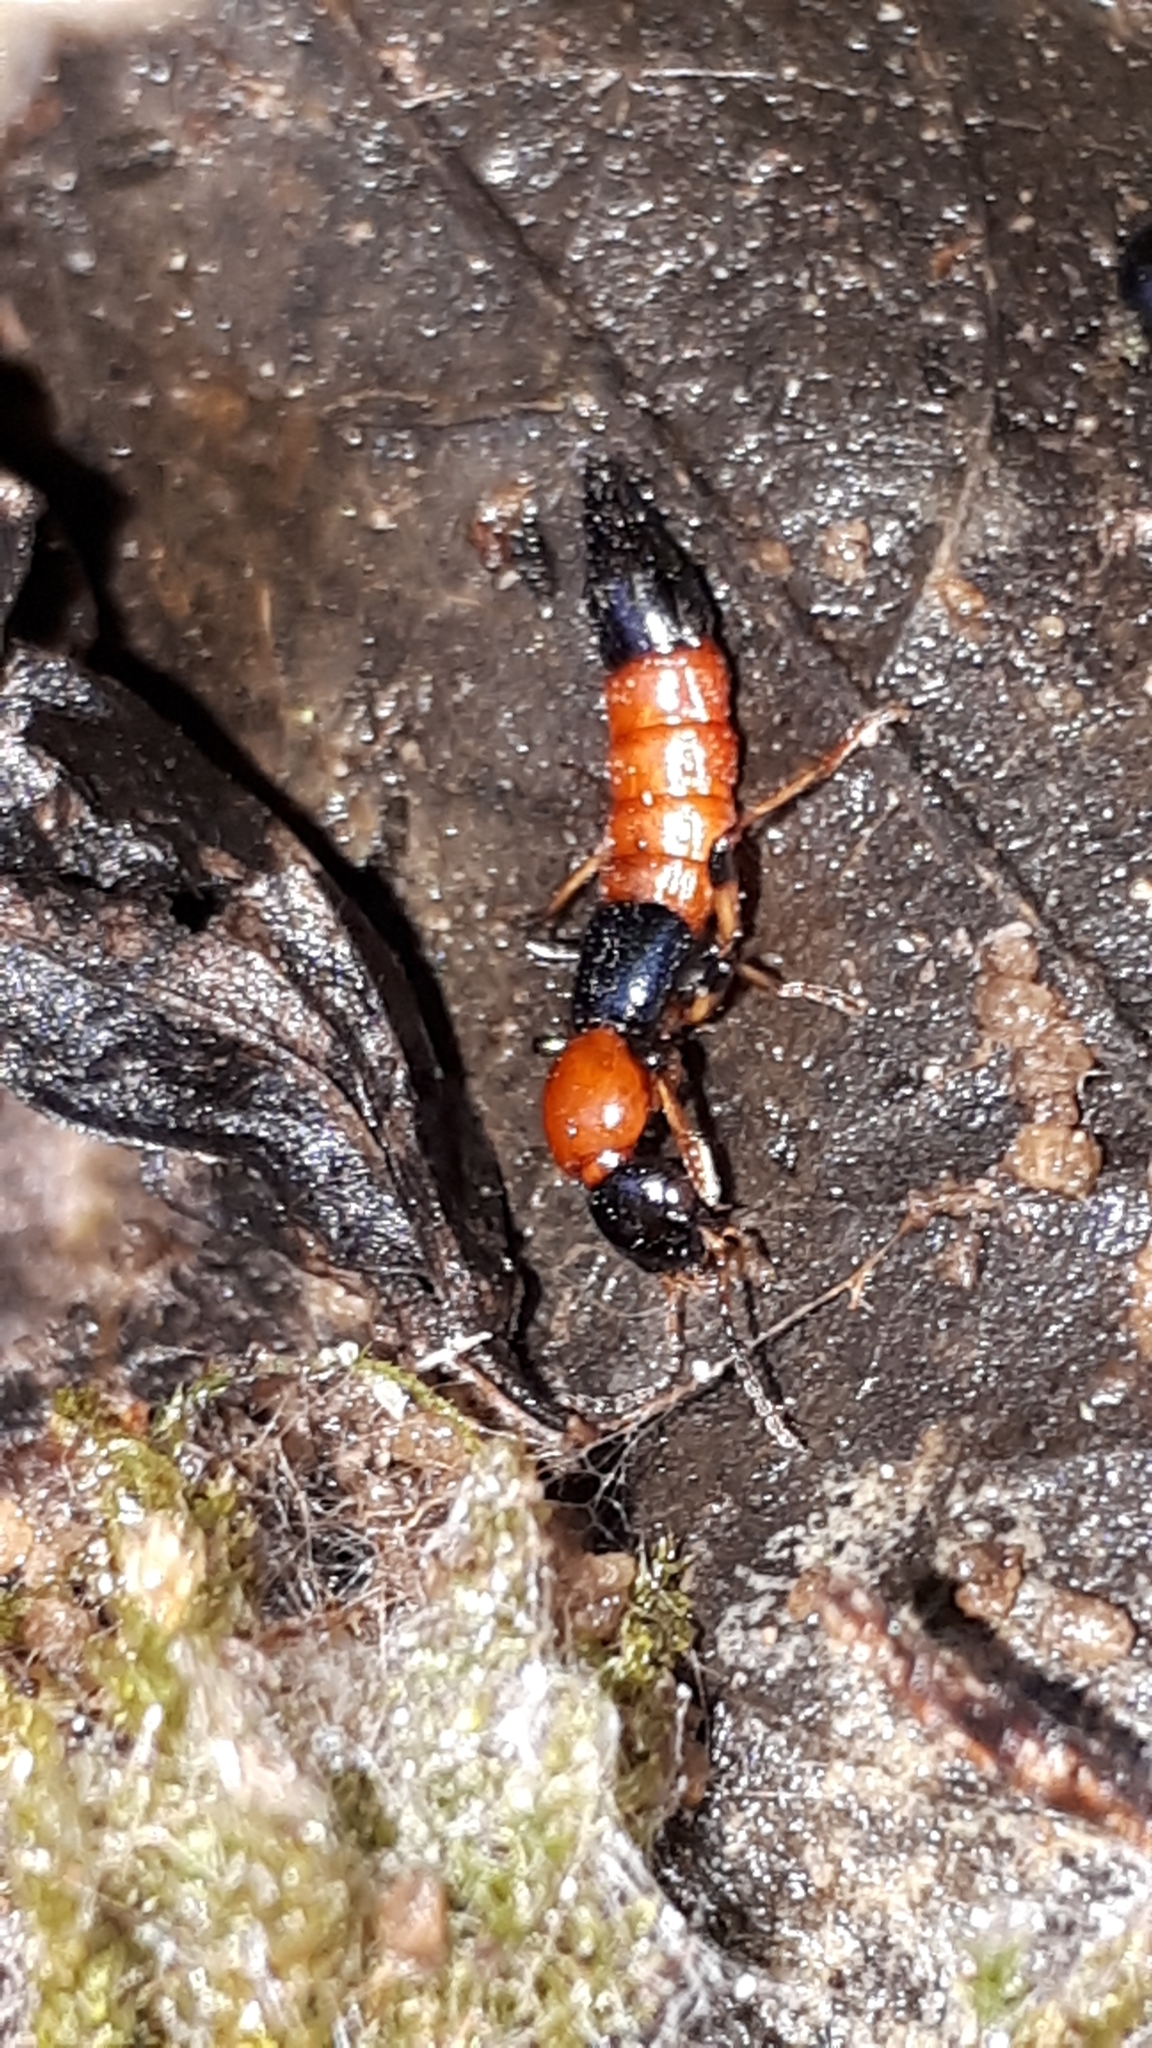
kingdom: Animalia
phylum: Arthropoda
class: Insecta
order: Coleoptera
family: Staphylinidae
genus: Paederus
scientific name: Paederus schoenherri
